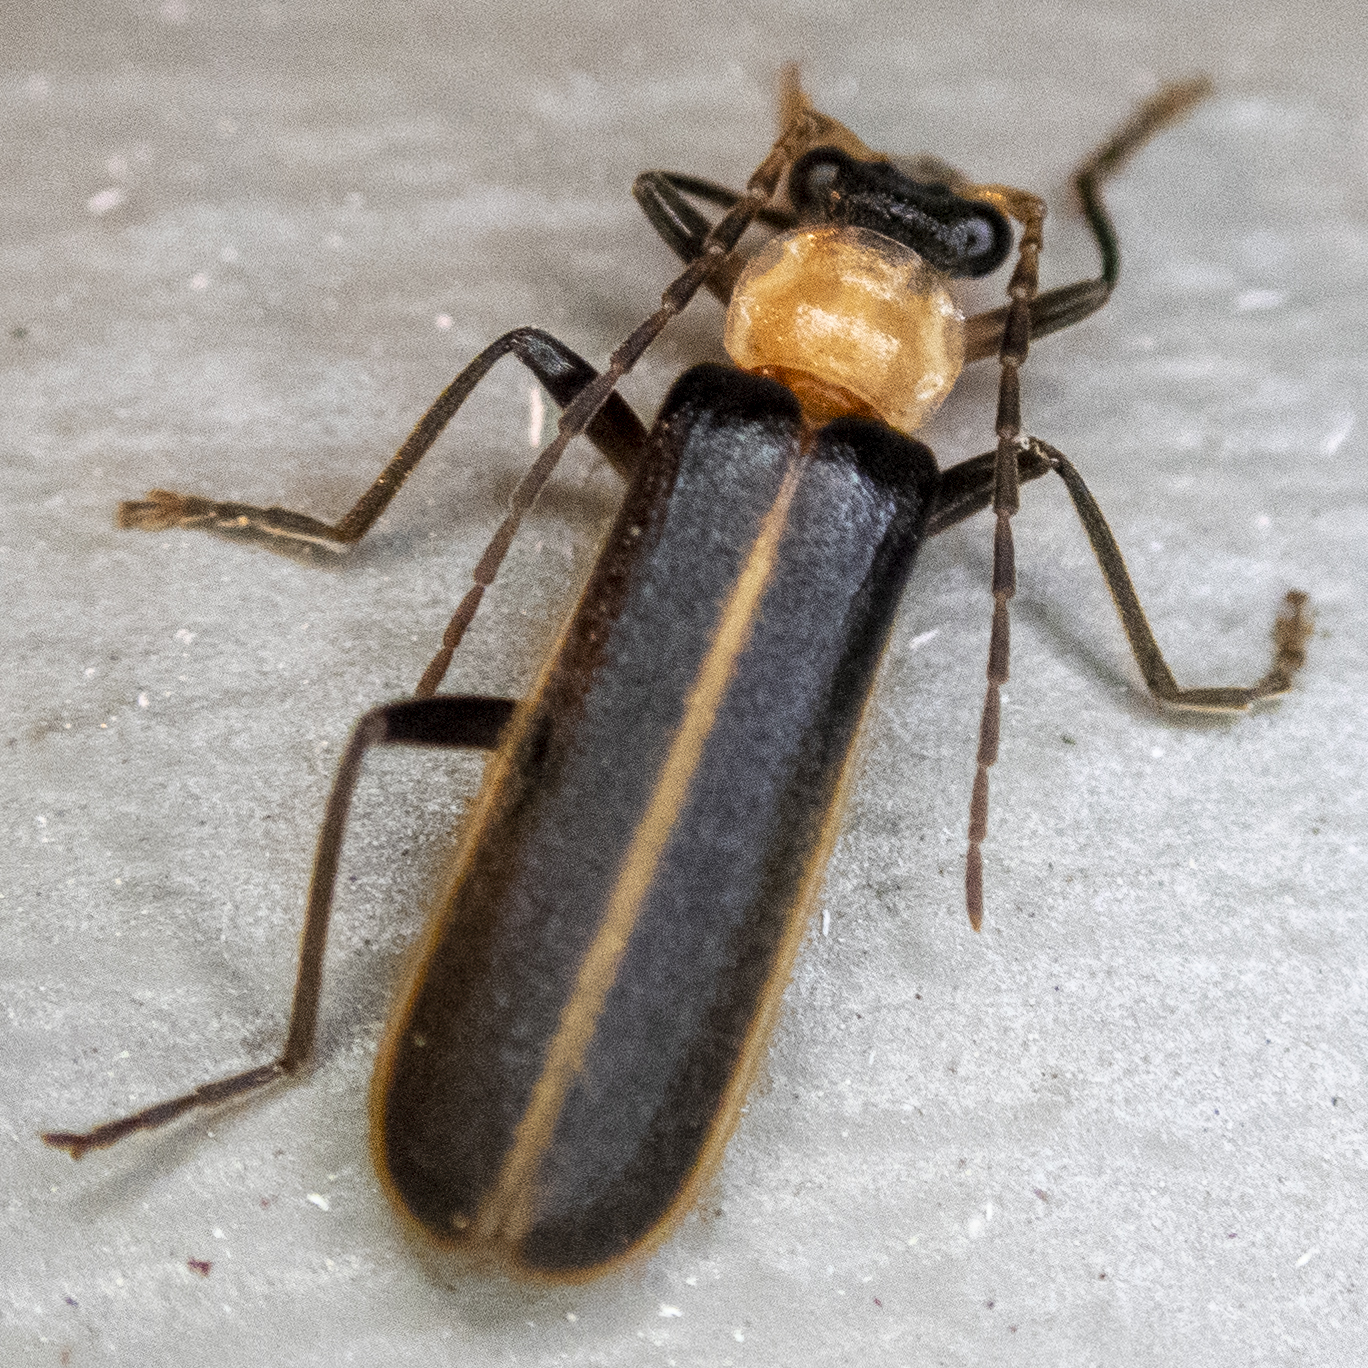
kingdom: Animalia
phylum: Arthropoda
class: Insecta
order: Coleoptera
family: Cantharidae
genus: Podabrus
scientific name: Podabrus flavicollis
